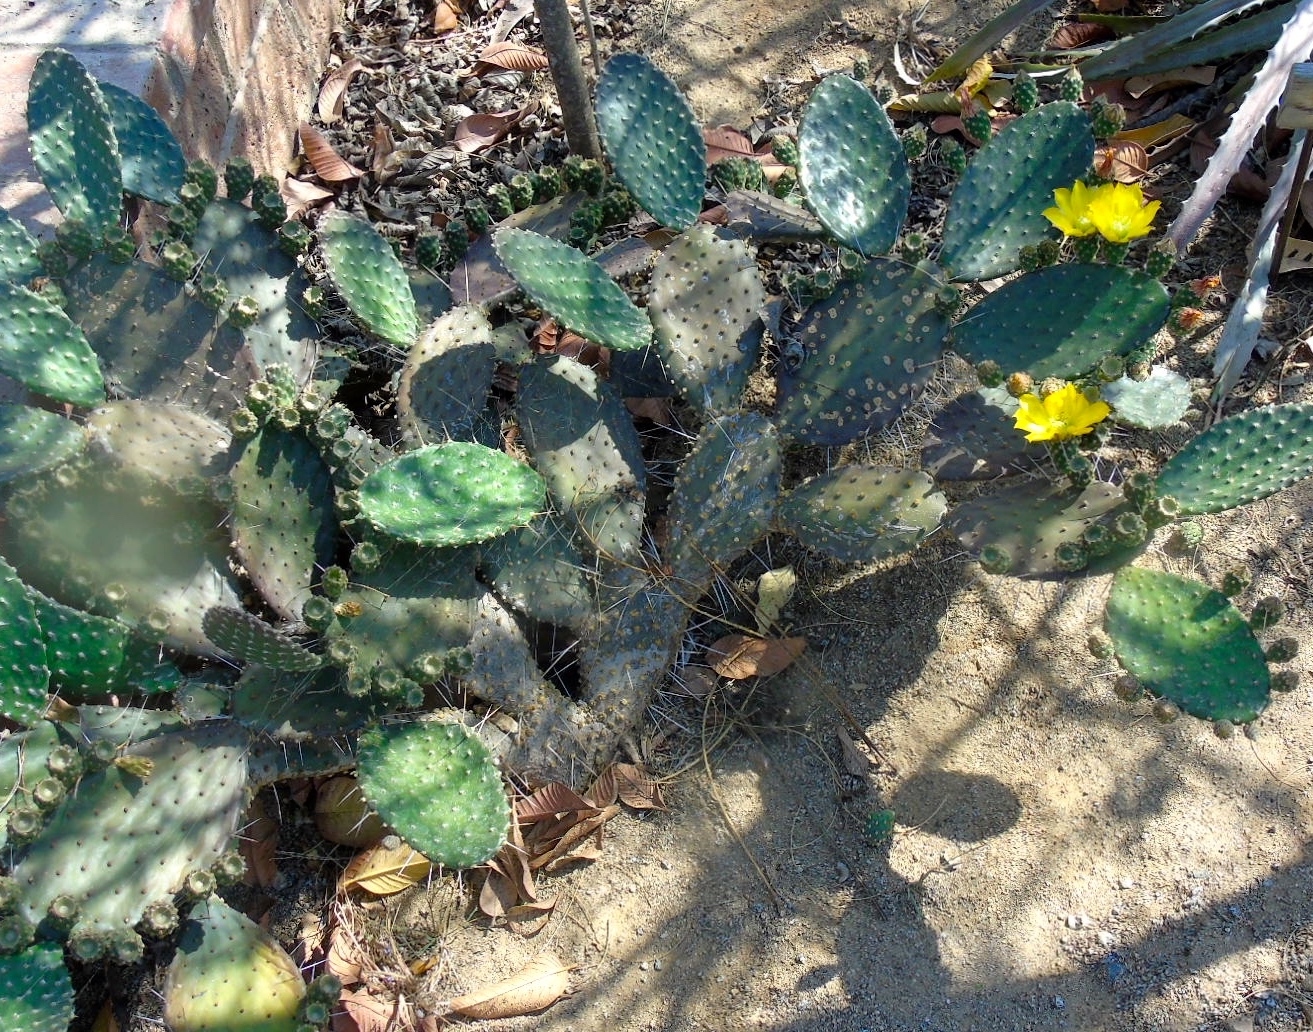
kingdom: Plantae
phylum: Tracheophyta
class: Magnoliopsida
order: Caryophyllales
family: Cactaceae
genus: Opuntia
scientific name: Opuntia decumbens
